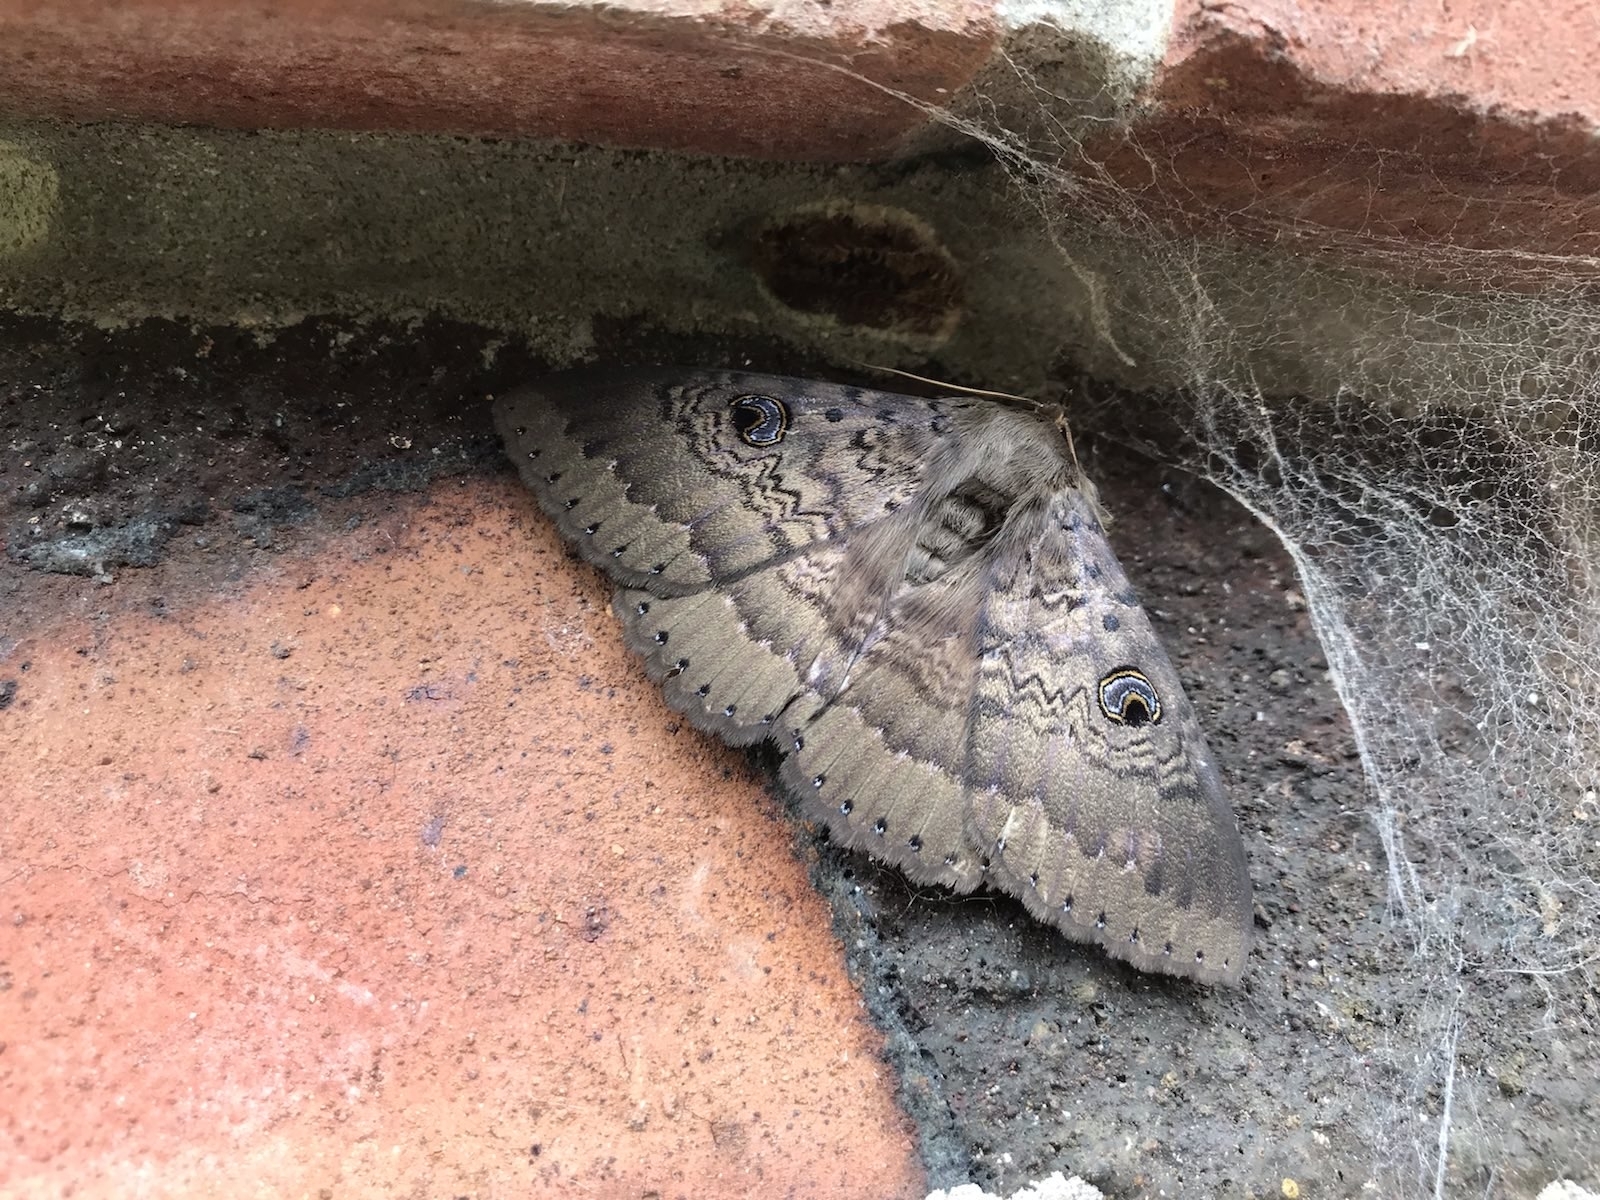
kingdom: Animalia
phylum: Arthropoda
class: Insecta
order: Lepidoptera
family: Erebidae
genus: Dasypodia
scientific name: Dasypodia cymatodes
